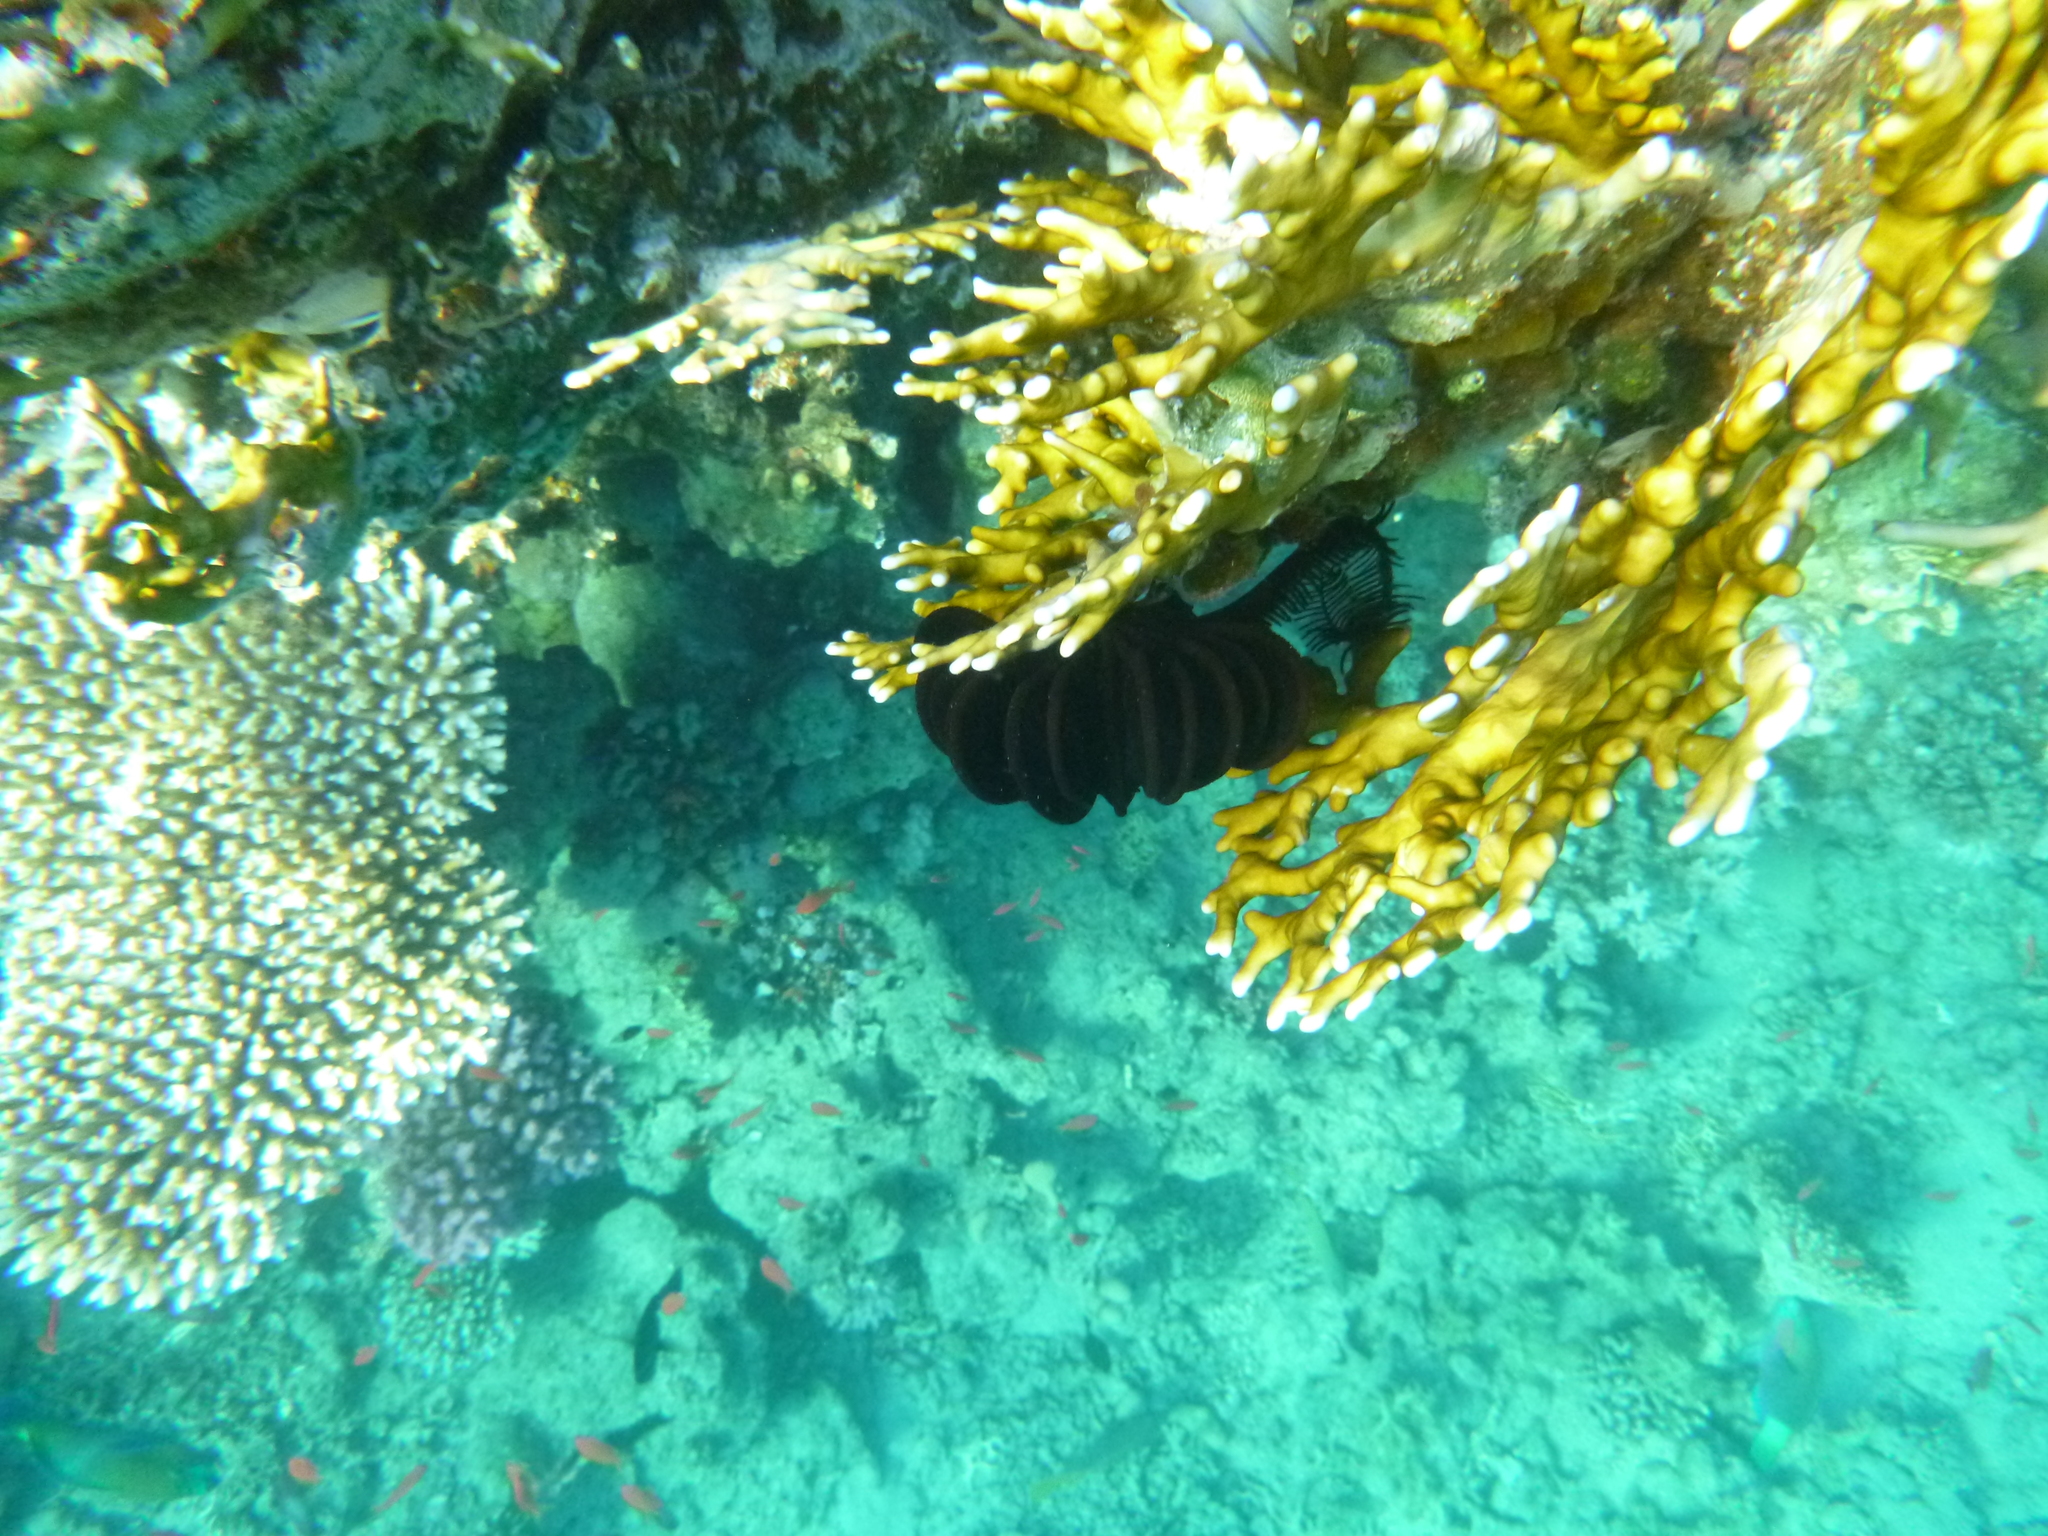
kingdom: Animalia
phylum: Echinodermata
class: Crinoidea
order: Comatulida
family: Comatulidae
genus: Capillaster
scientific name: Capillaster multiradiatus
